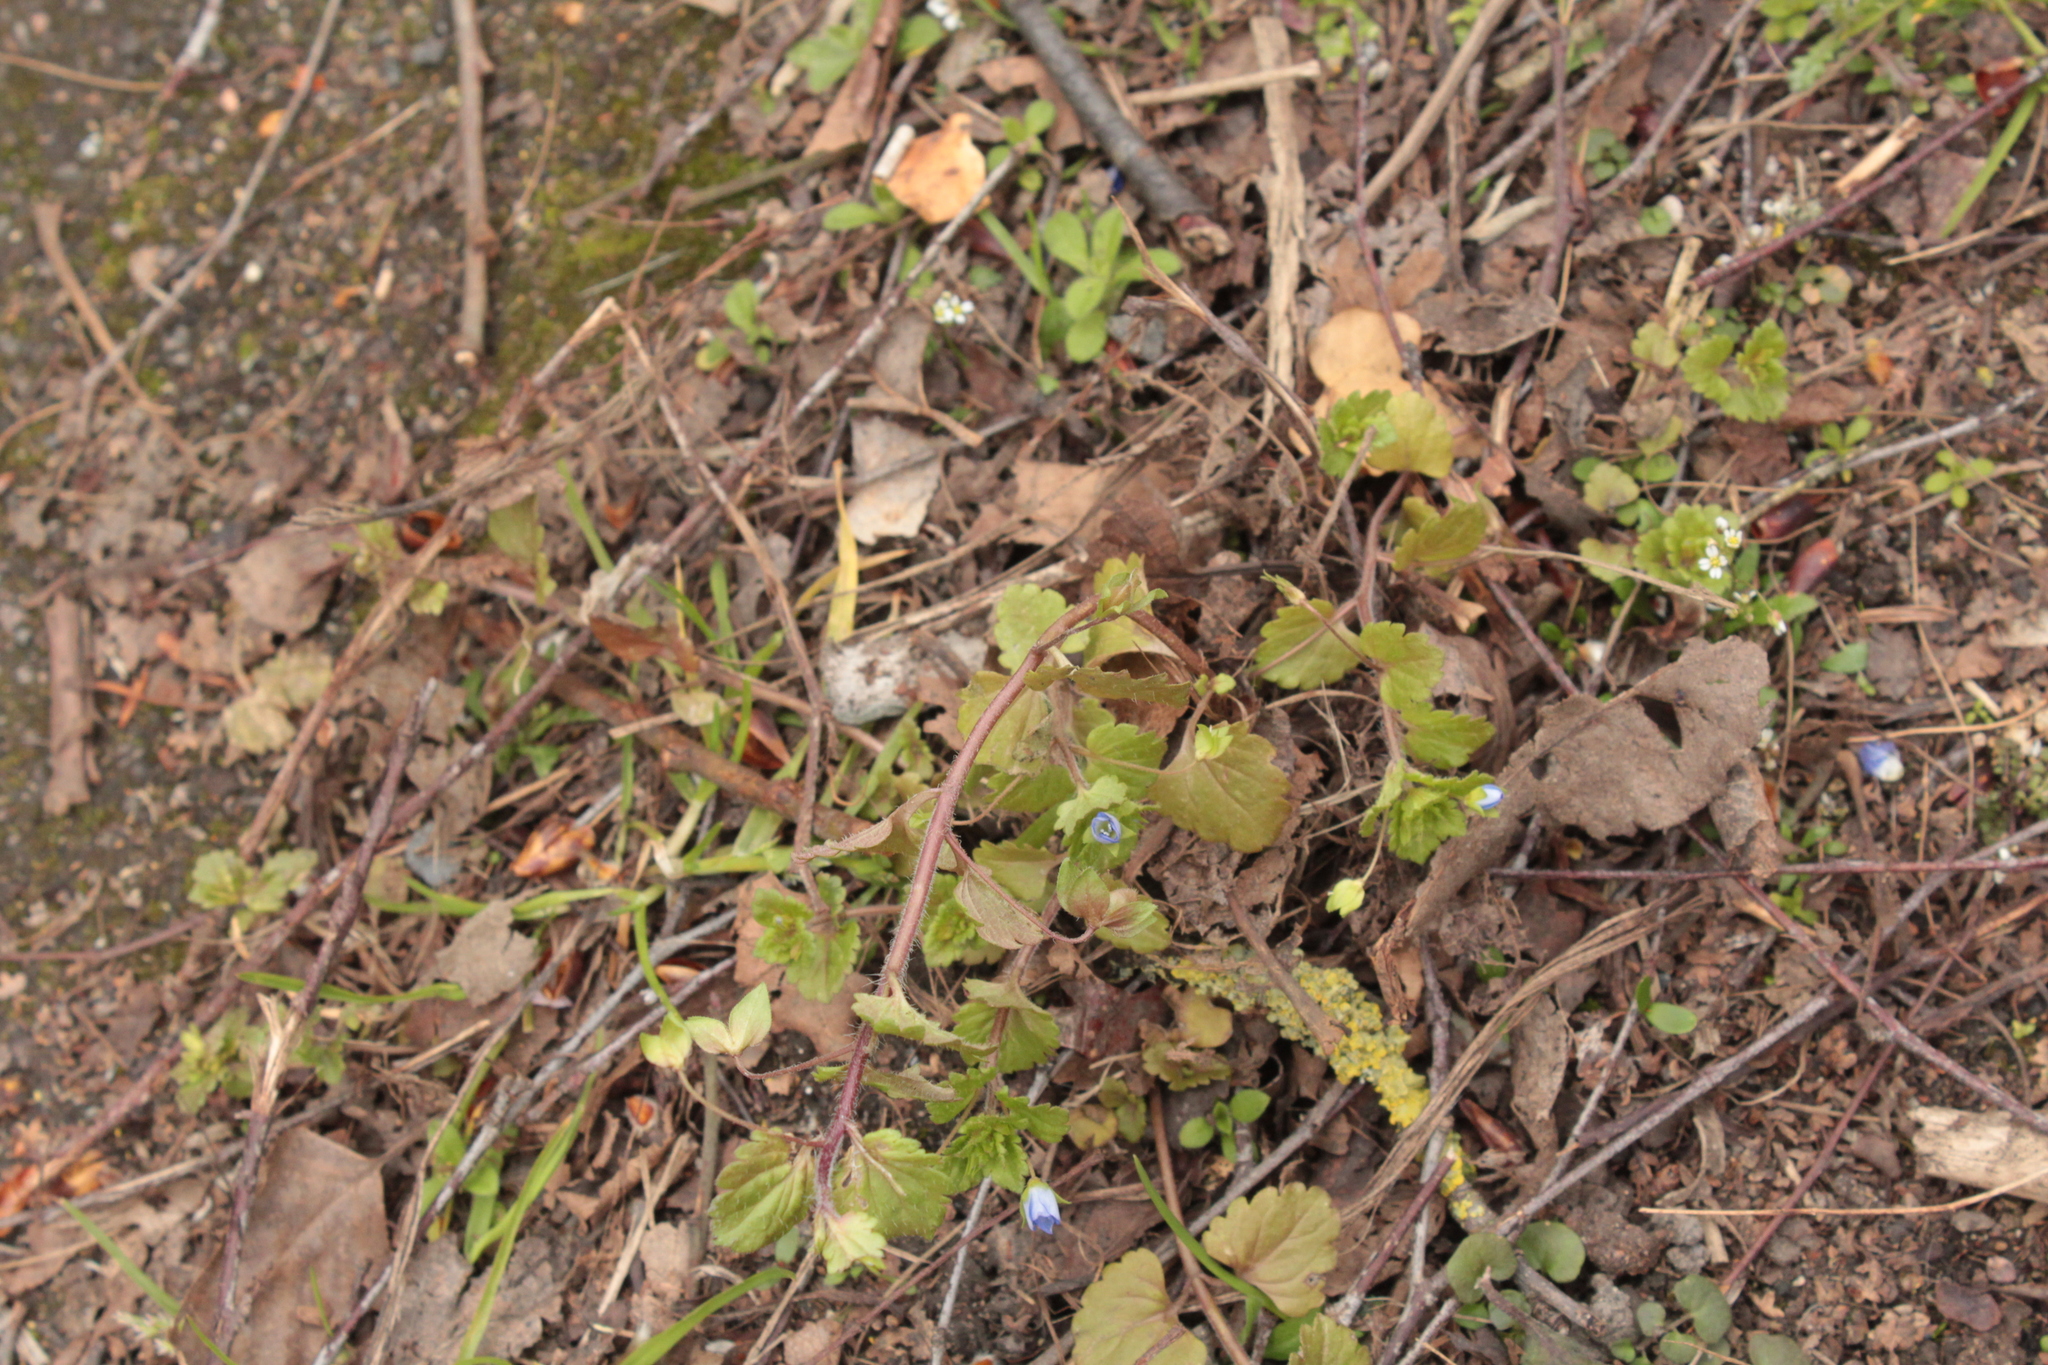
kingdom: Plantae
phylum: Tracheophyta
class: Magnoliopsida
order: Lamiales
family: Plantaginaceae
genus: Veronica
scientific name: Veronica persica
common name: Common field-speedwell
